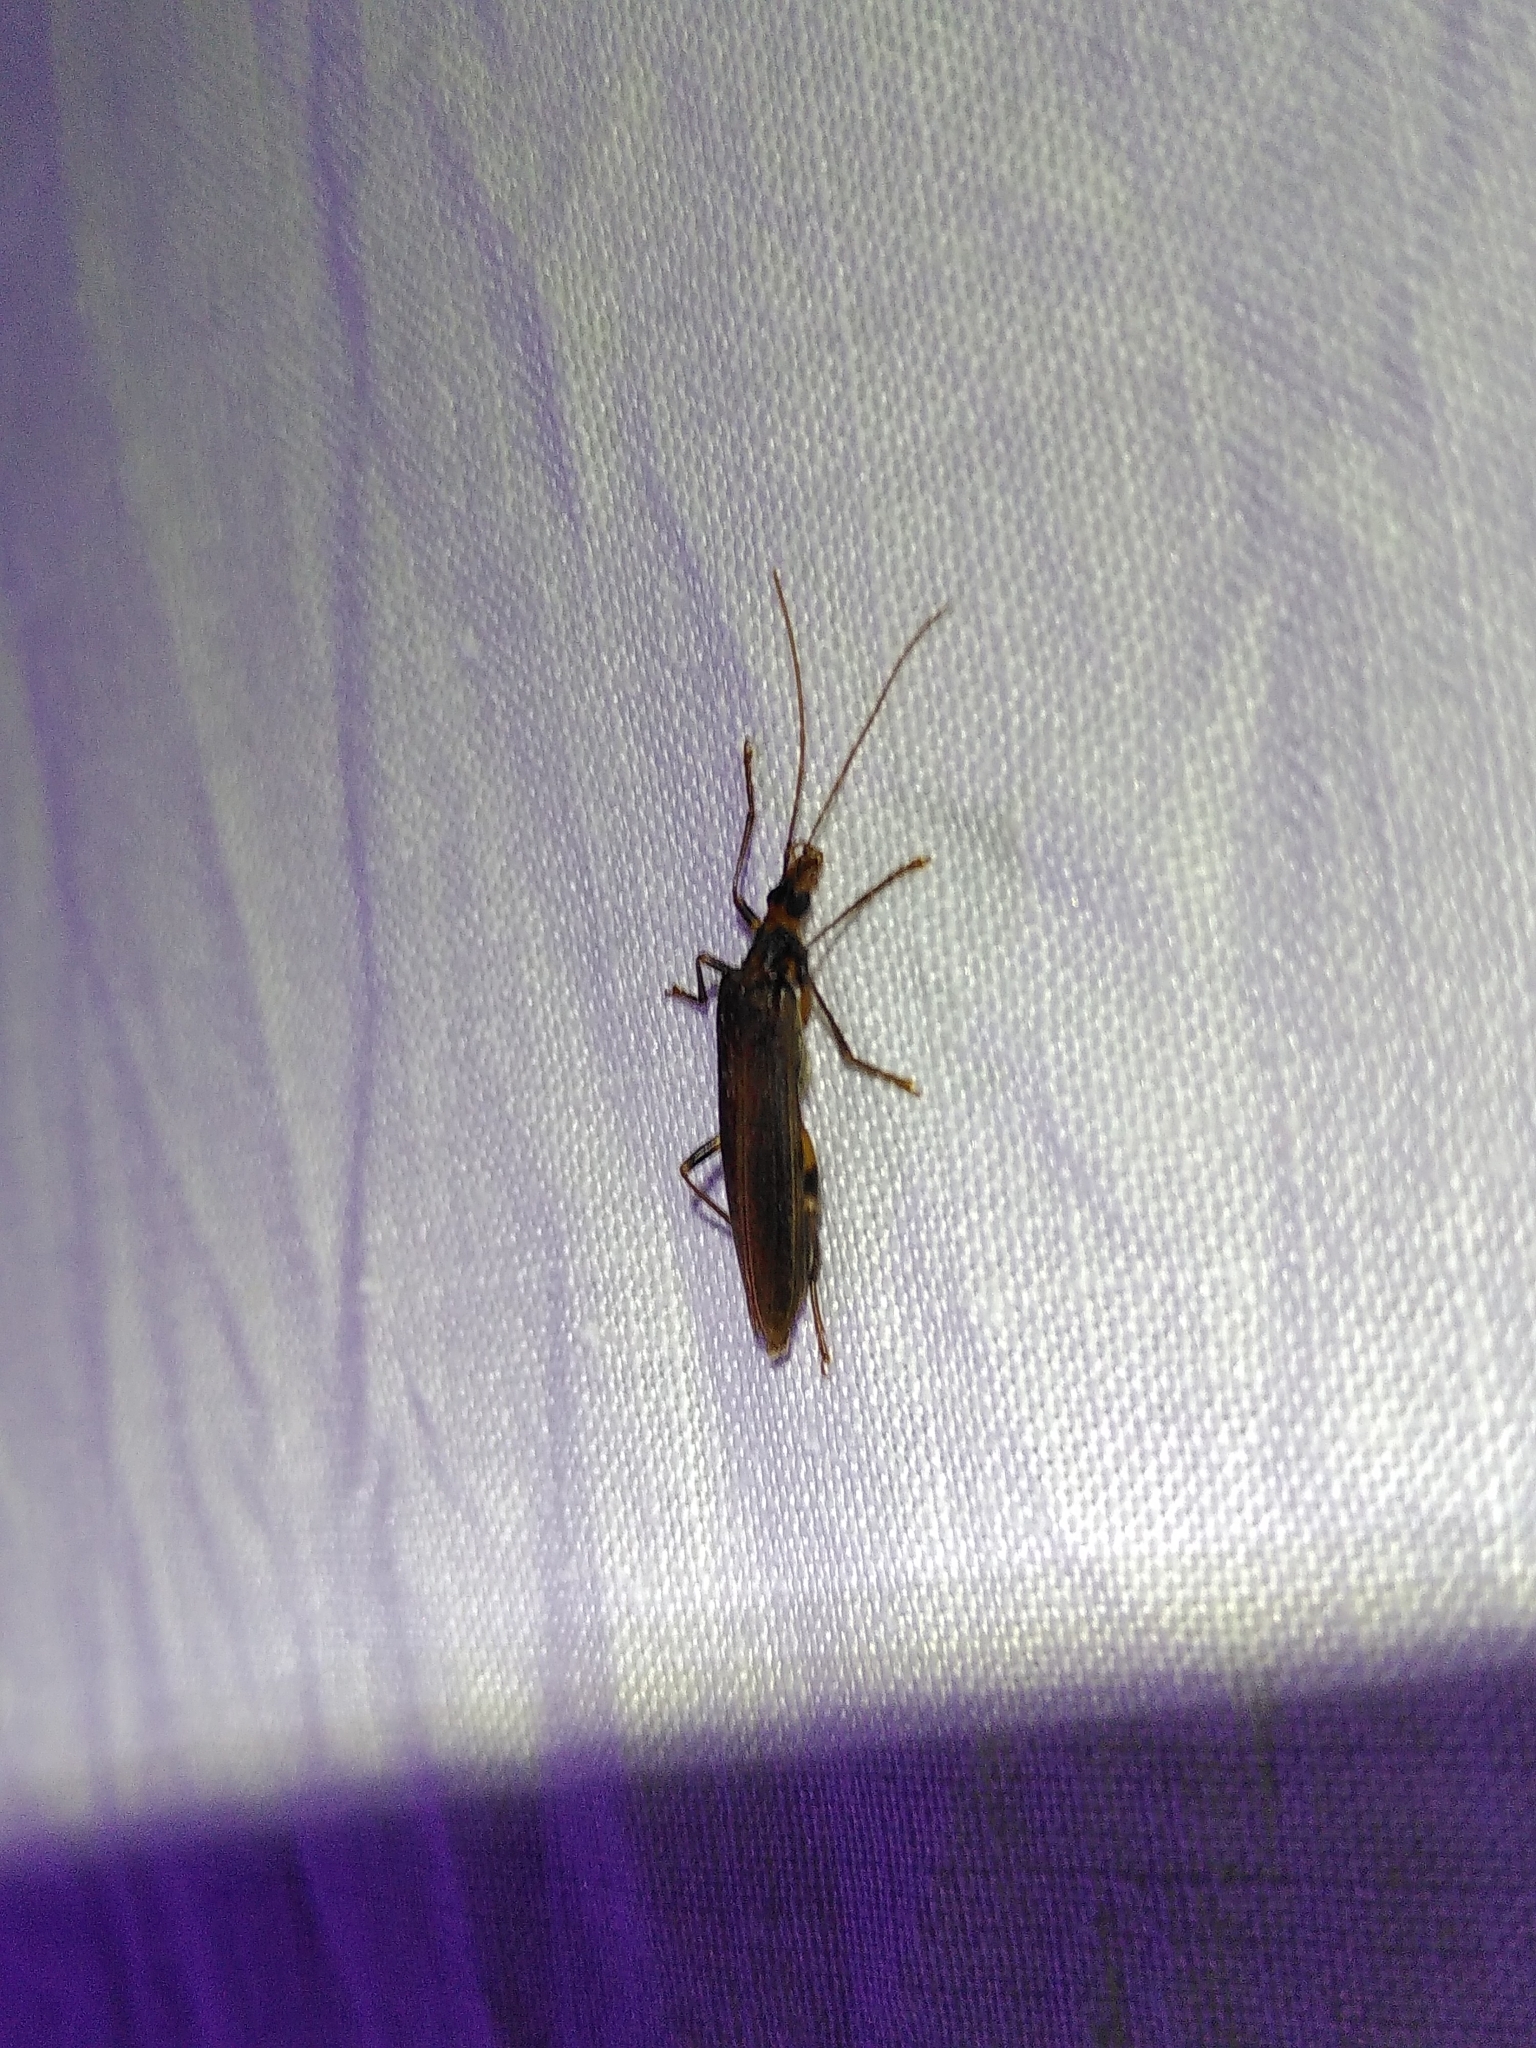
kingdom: Animalia
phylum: Arthropoda
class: Insecta
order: Coleoptera
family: Oedemeridae
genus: Oedemera
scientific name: Oedemera femoralis
